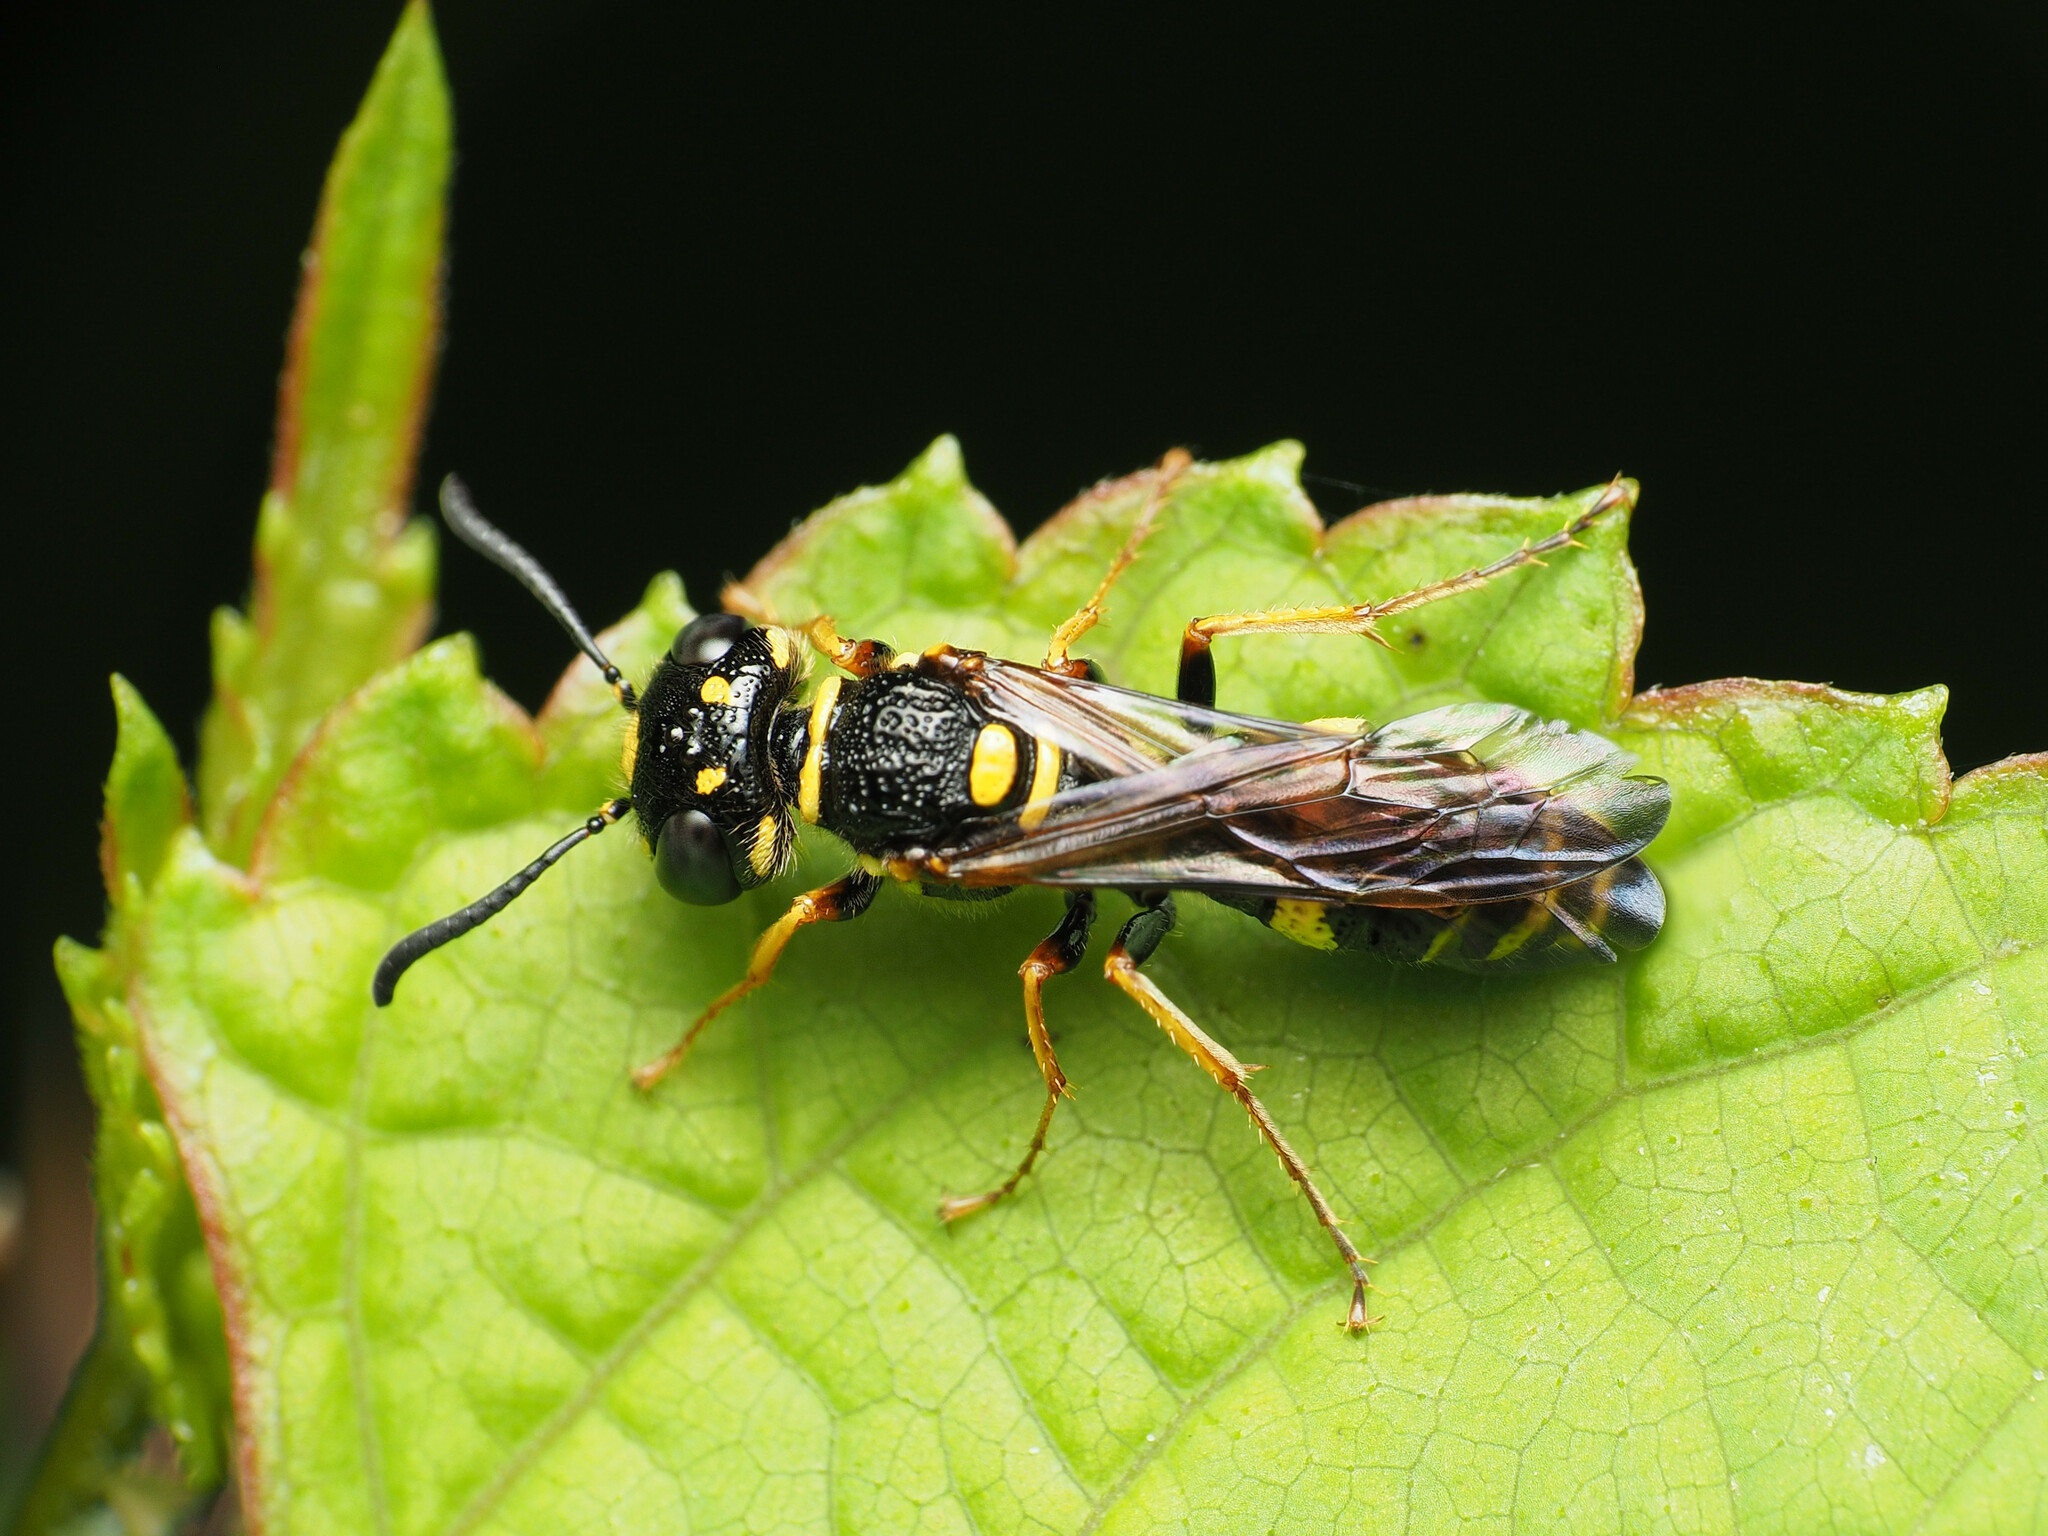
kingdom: Animalia
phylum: Arthropoda
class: Insecta
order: Hymenoptera
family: Crabronidae
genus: Philanthus
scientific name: Philanthus gibbosus
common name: Humped beewolf
